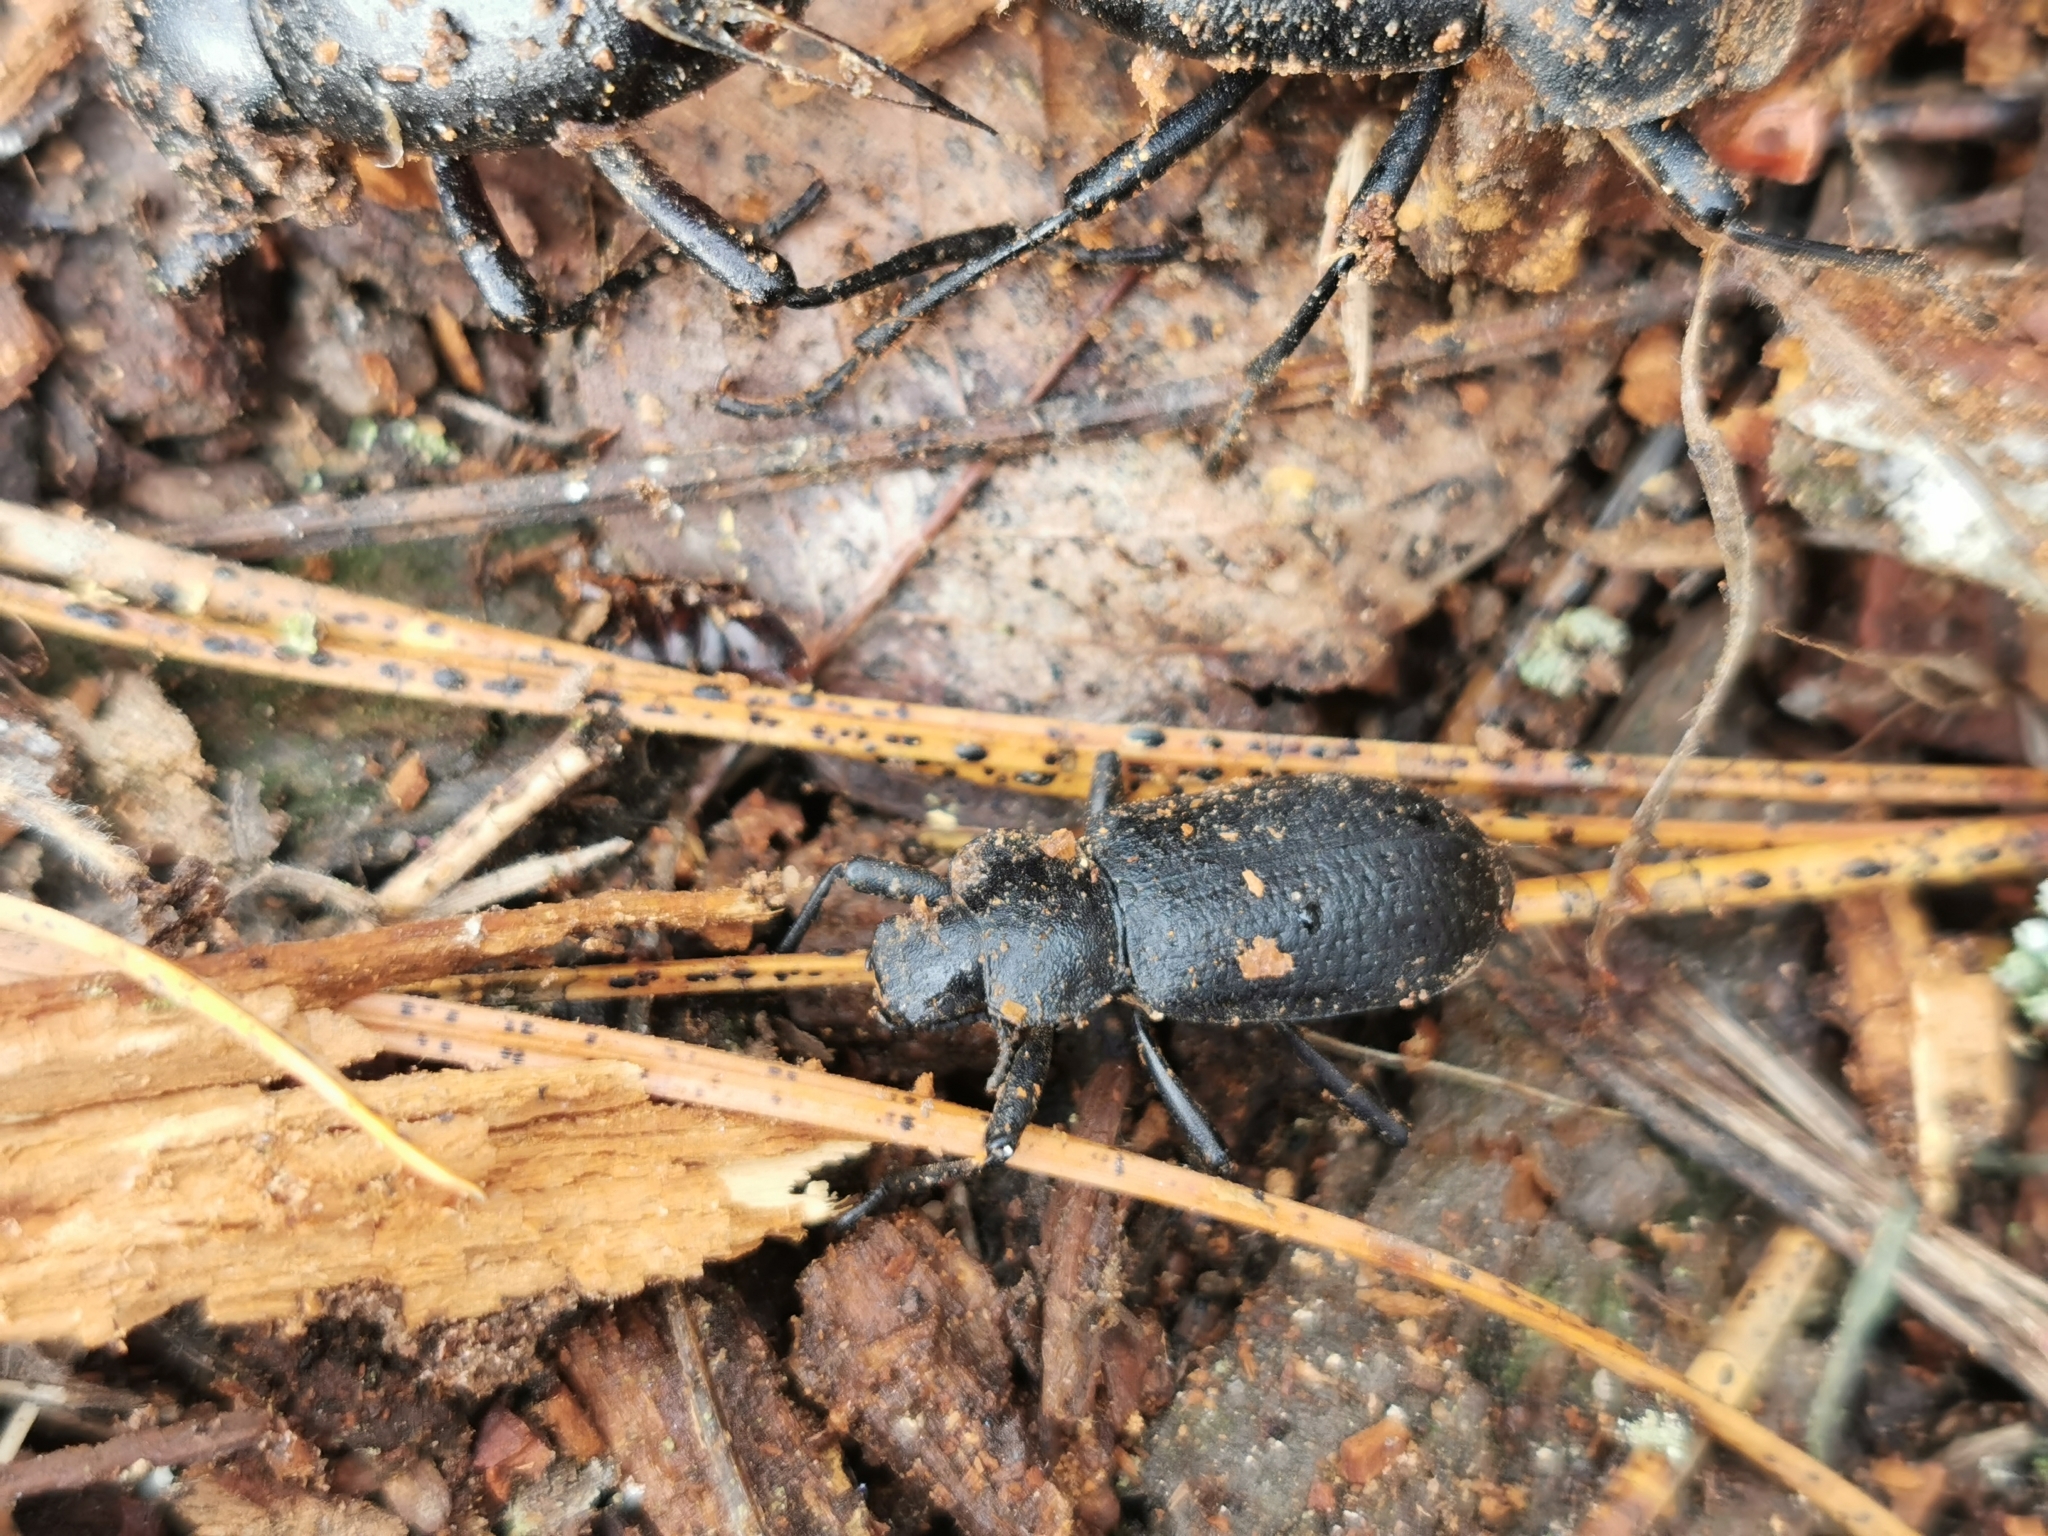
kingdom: Animalia
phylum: Arthropoda
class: Insecta
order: Coleoptera
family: Tenebrionidae
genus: Iphthiminus
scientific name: Iphthiminus serratus
